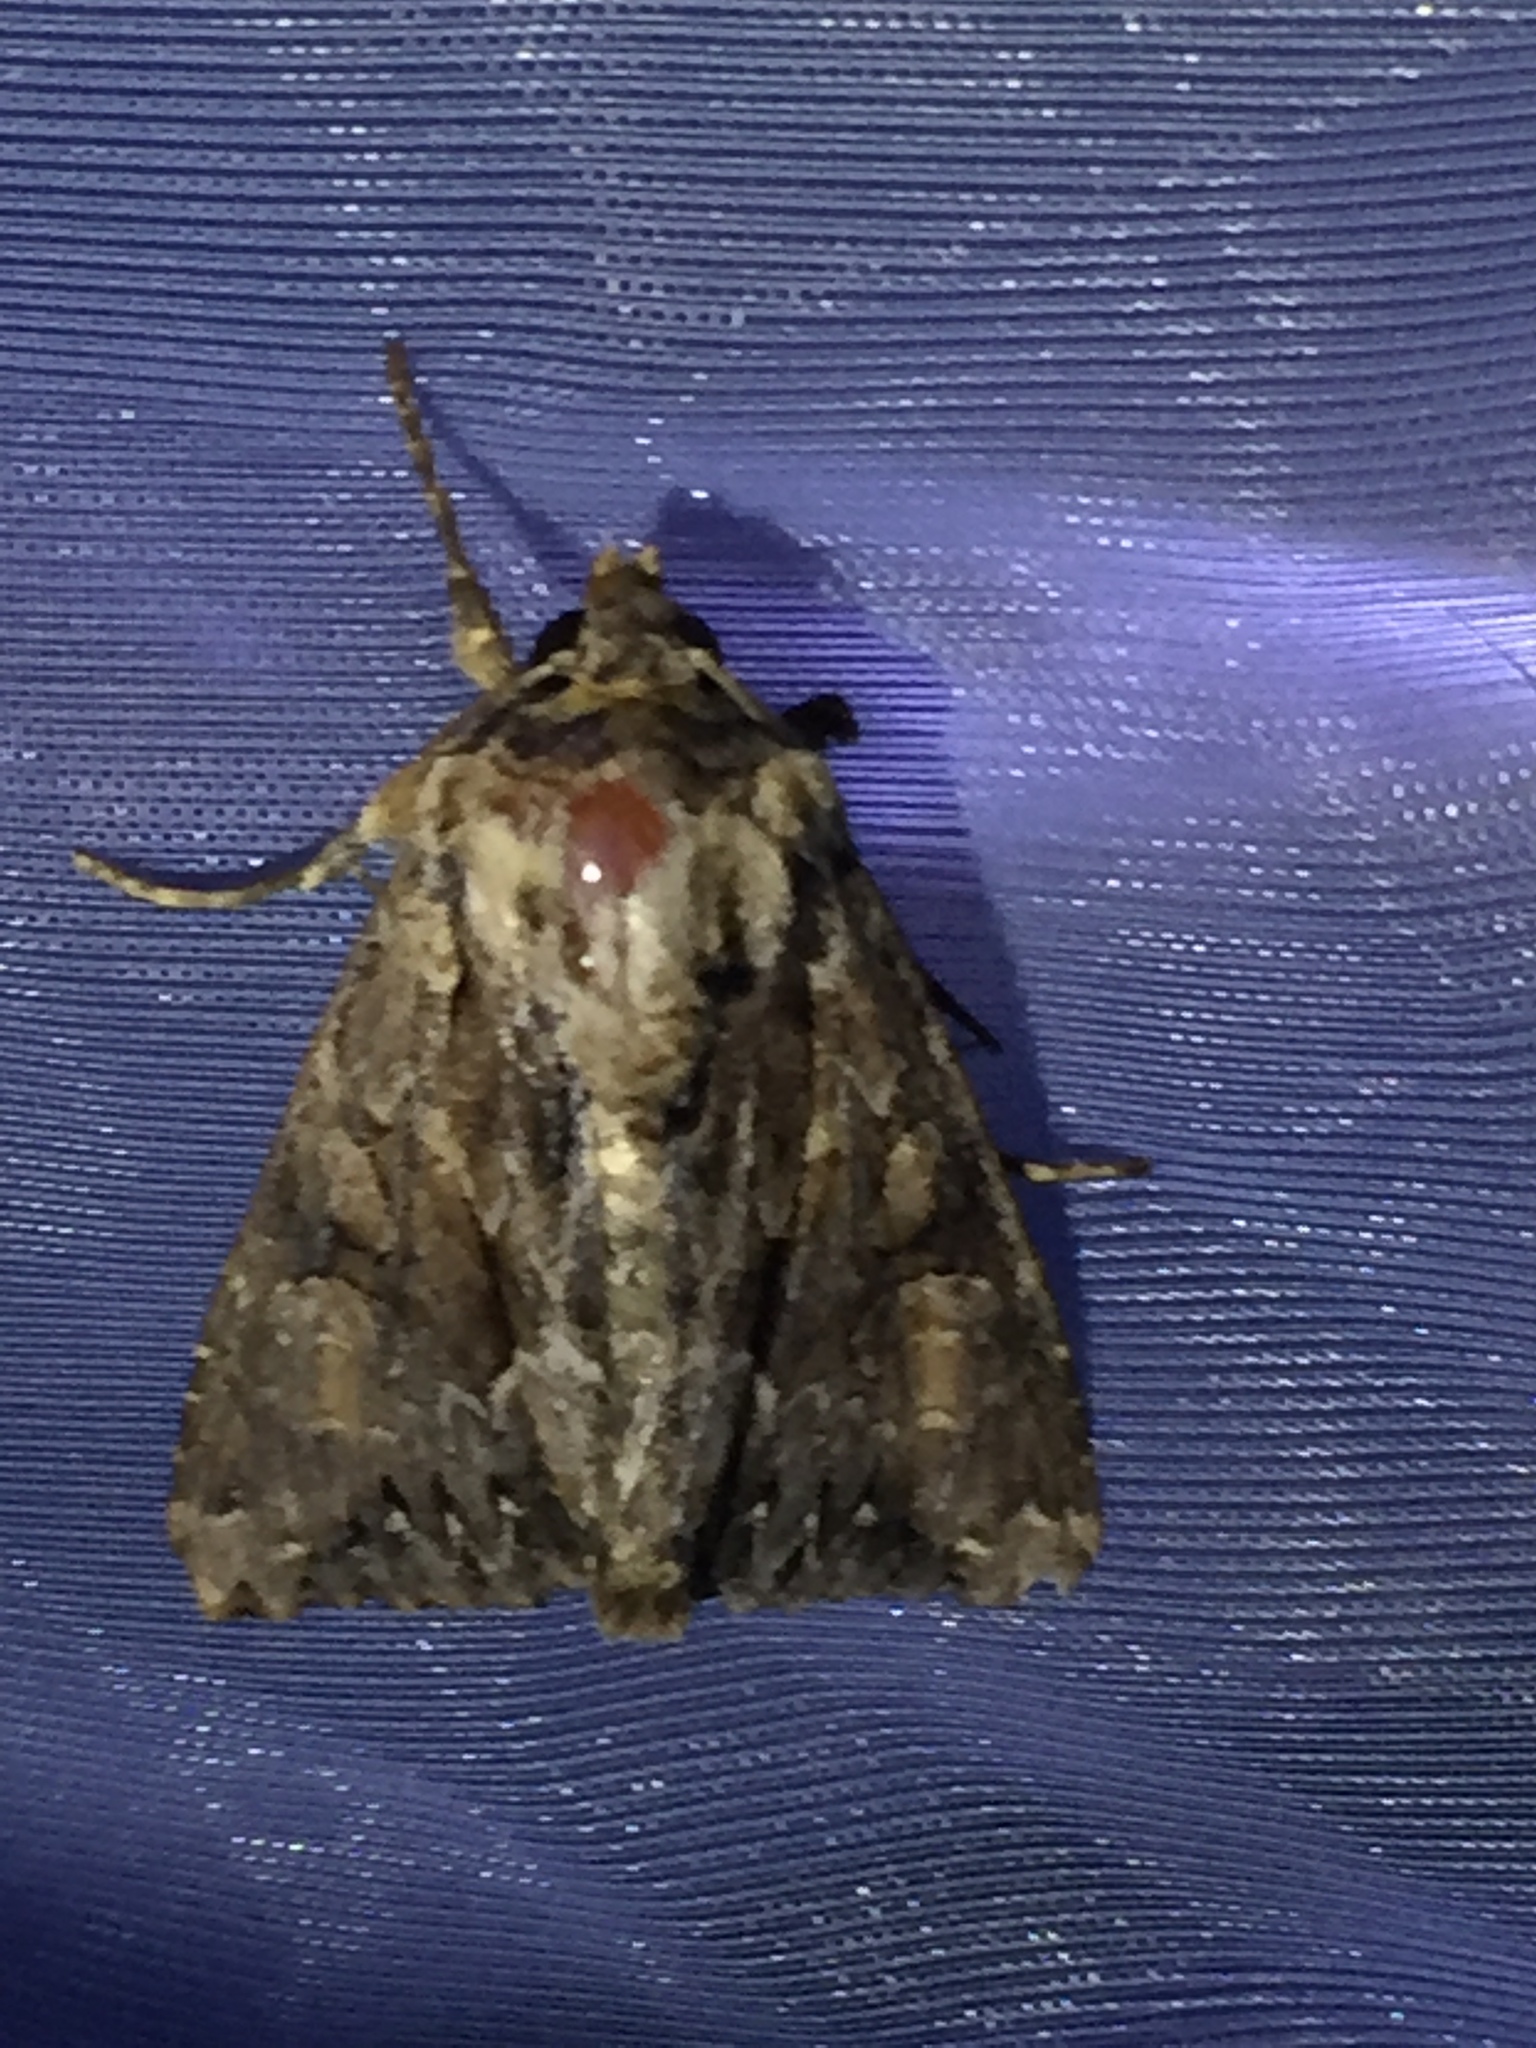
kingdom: Animalia
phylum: Arthropoda
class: Insecta
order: Lepidoptera
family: Noctuidae
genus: Apamea
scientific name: Apamea monoglypha
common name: Dark arches
